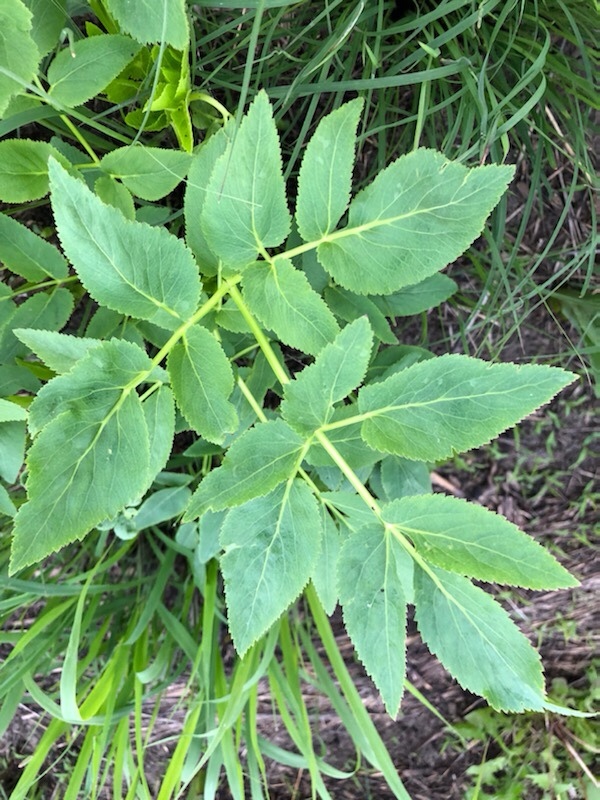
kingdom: Plantae
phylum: Tracheophyta
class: Magnoliopsida
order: Apiales
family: Apiaceae
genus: Zizia
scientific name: Zizia aurea
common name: Golden alexanders
